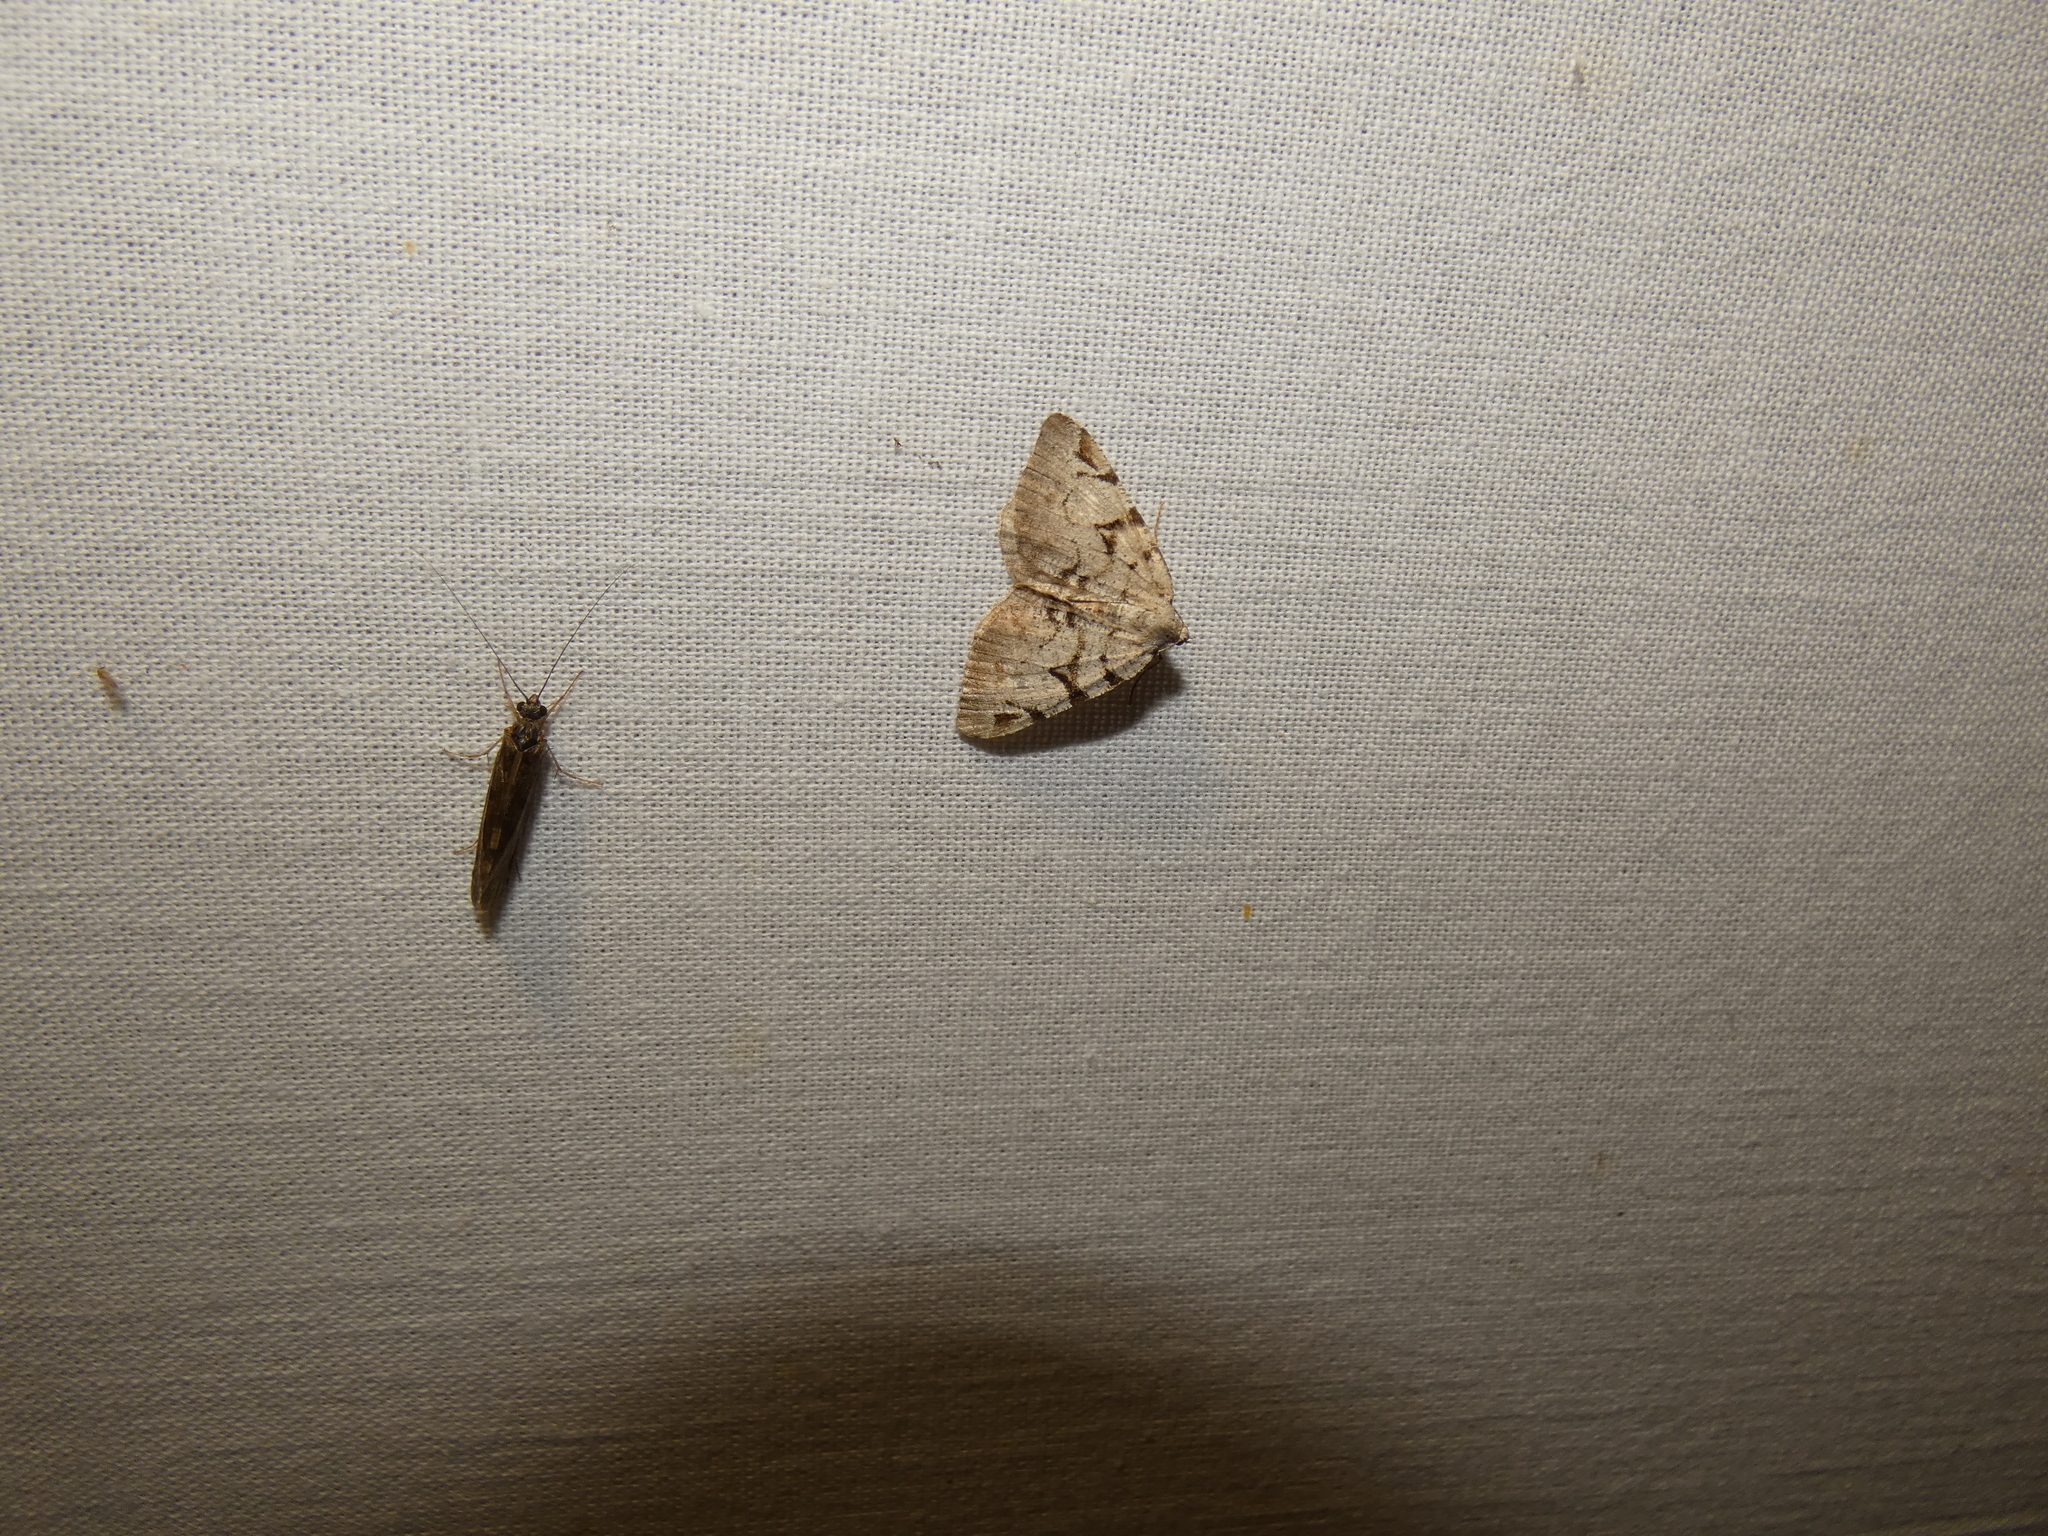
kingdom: Animalia
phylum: Arthropoda
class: Insecta
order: Lepidoptera
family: Geometridae
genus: Macaria
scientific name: Macaria wauaria
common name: V-moth
